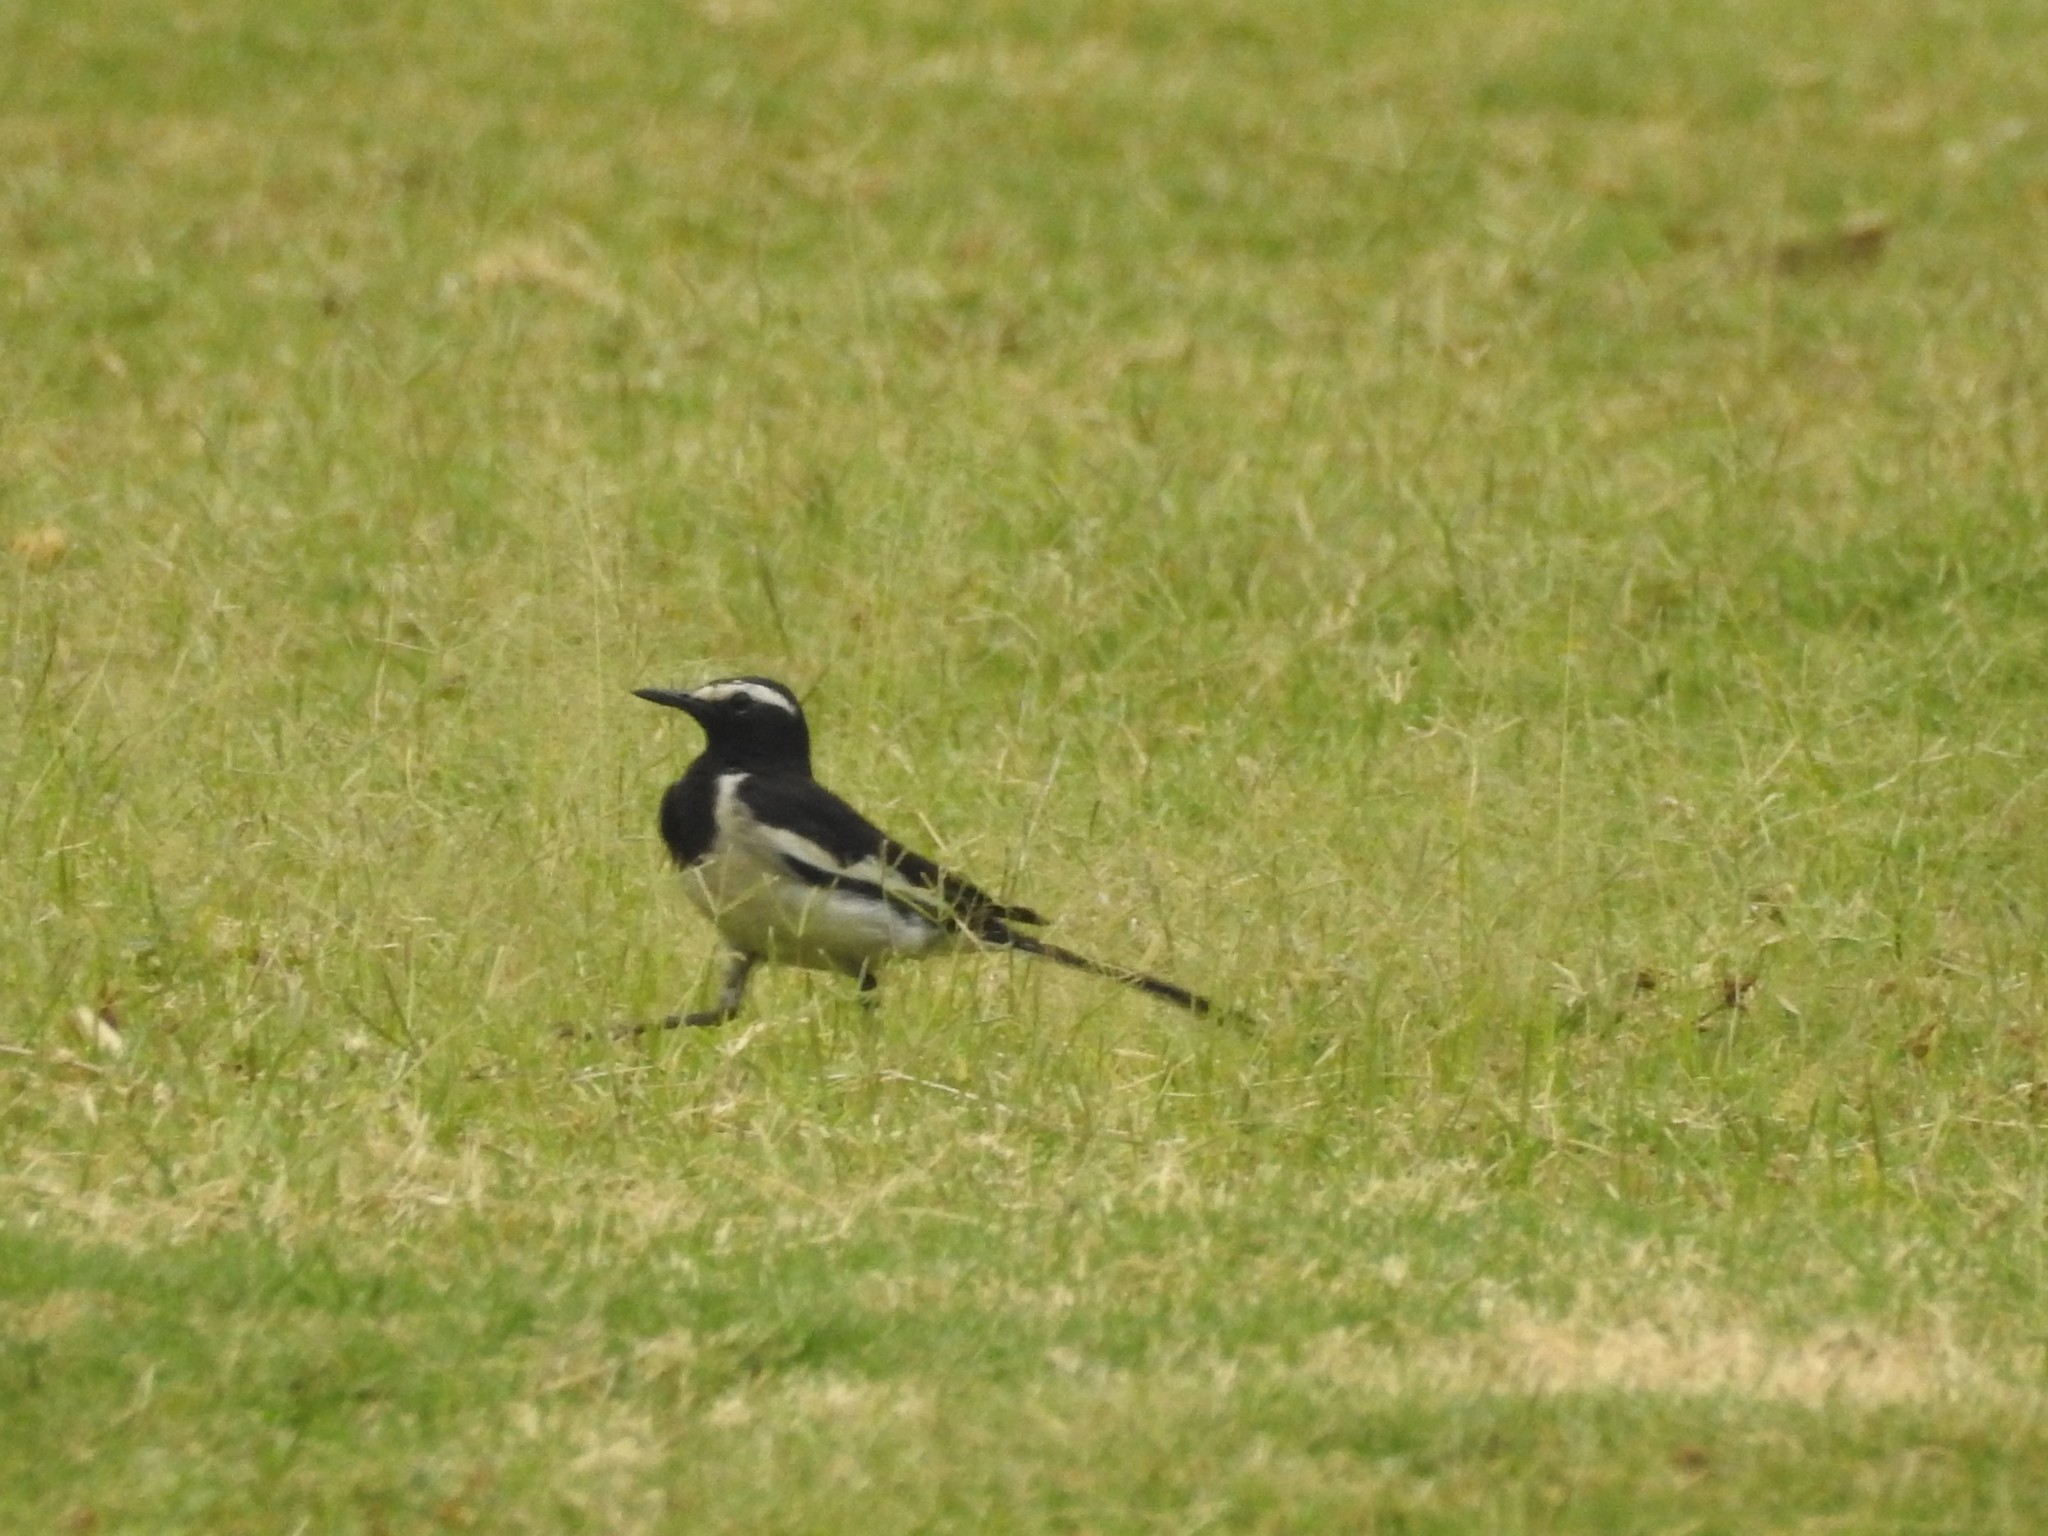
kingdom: Animalia
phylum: Chordata
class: Aves
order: Passeriformes
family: Motacillidae
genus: Motacilla
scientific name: Motacilla maderaspatensis
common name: White-browed wagtail
